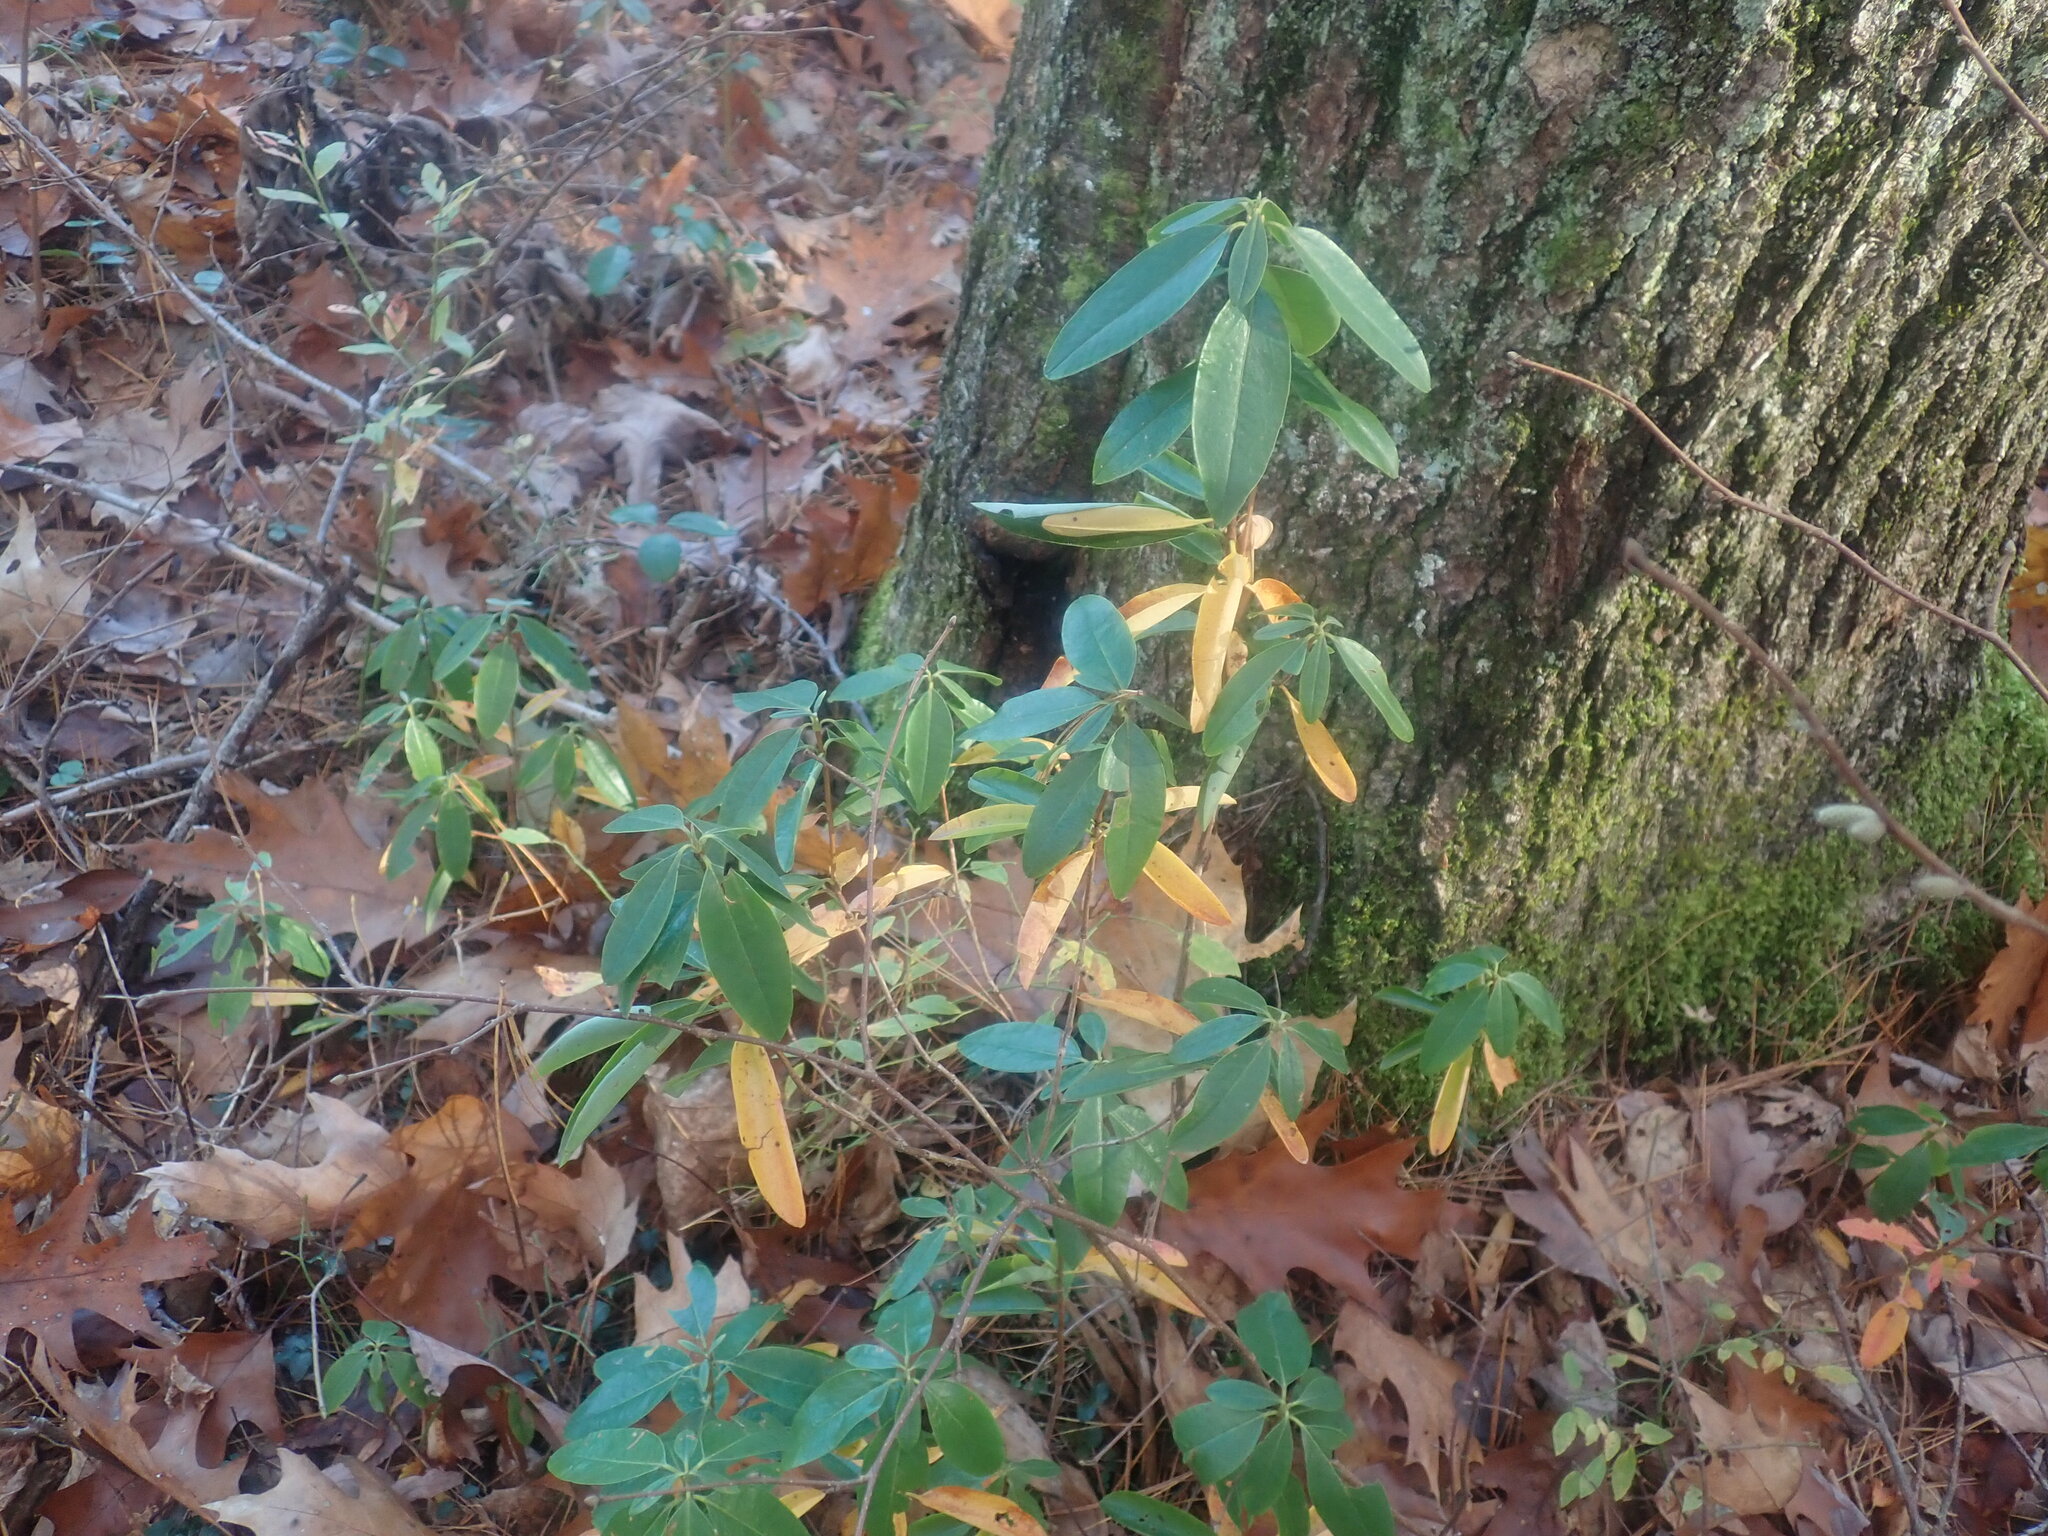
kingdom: Plantae
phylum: Tracheophyta
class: Magnoliopsida
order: Ericales
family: Ericaceae
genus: Kalmia
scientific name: Kalmia angustifolia
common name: Sheep-laurel
